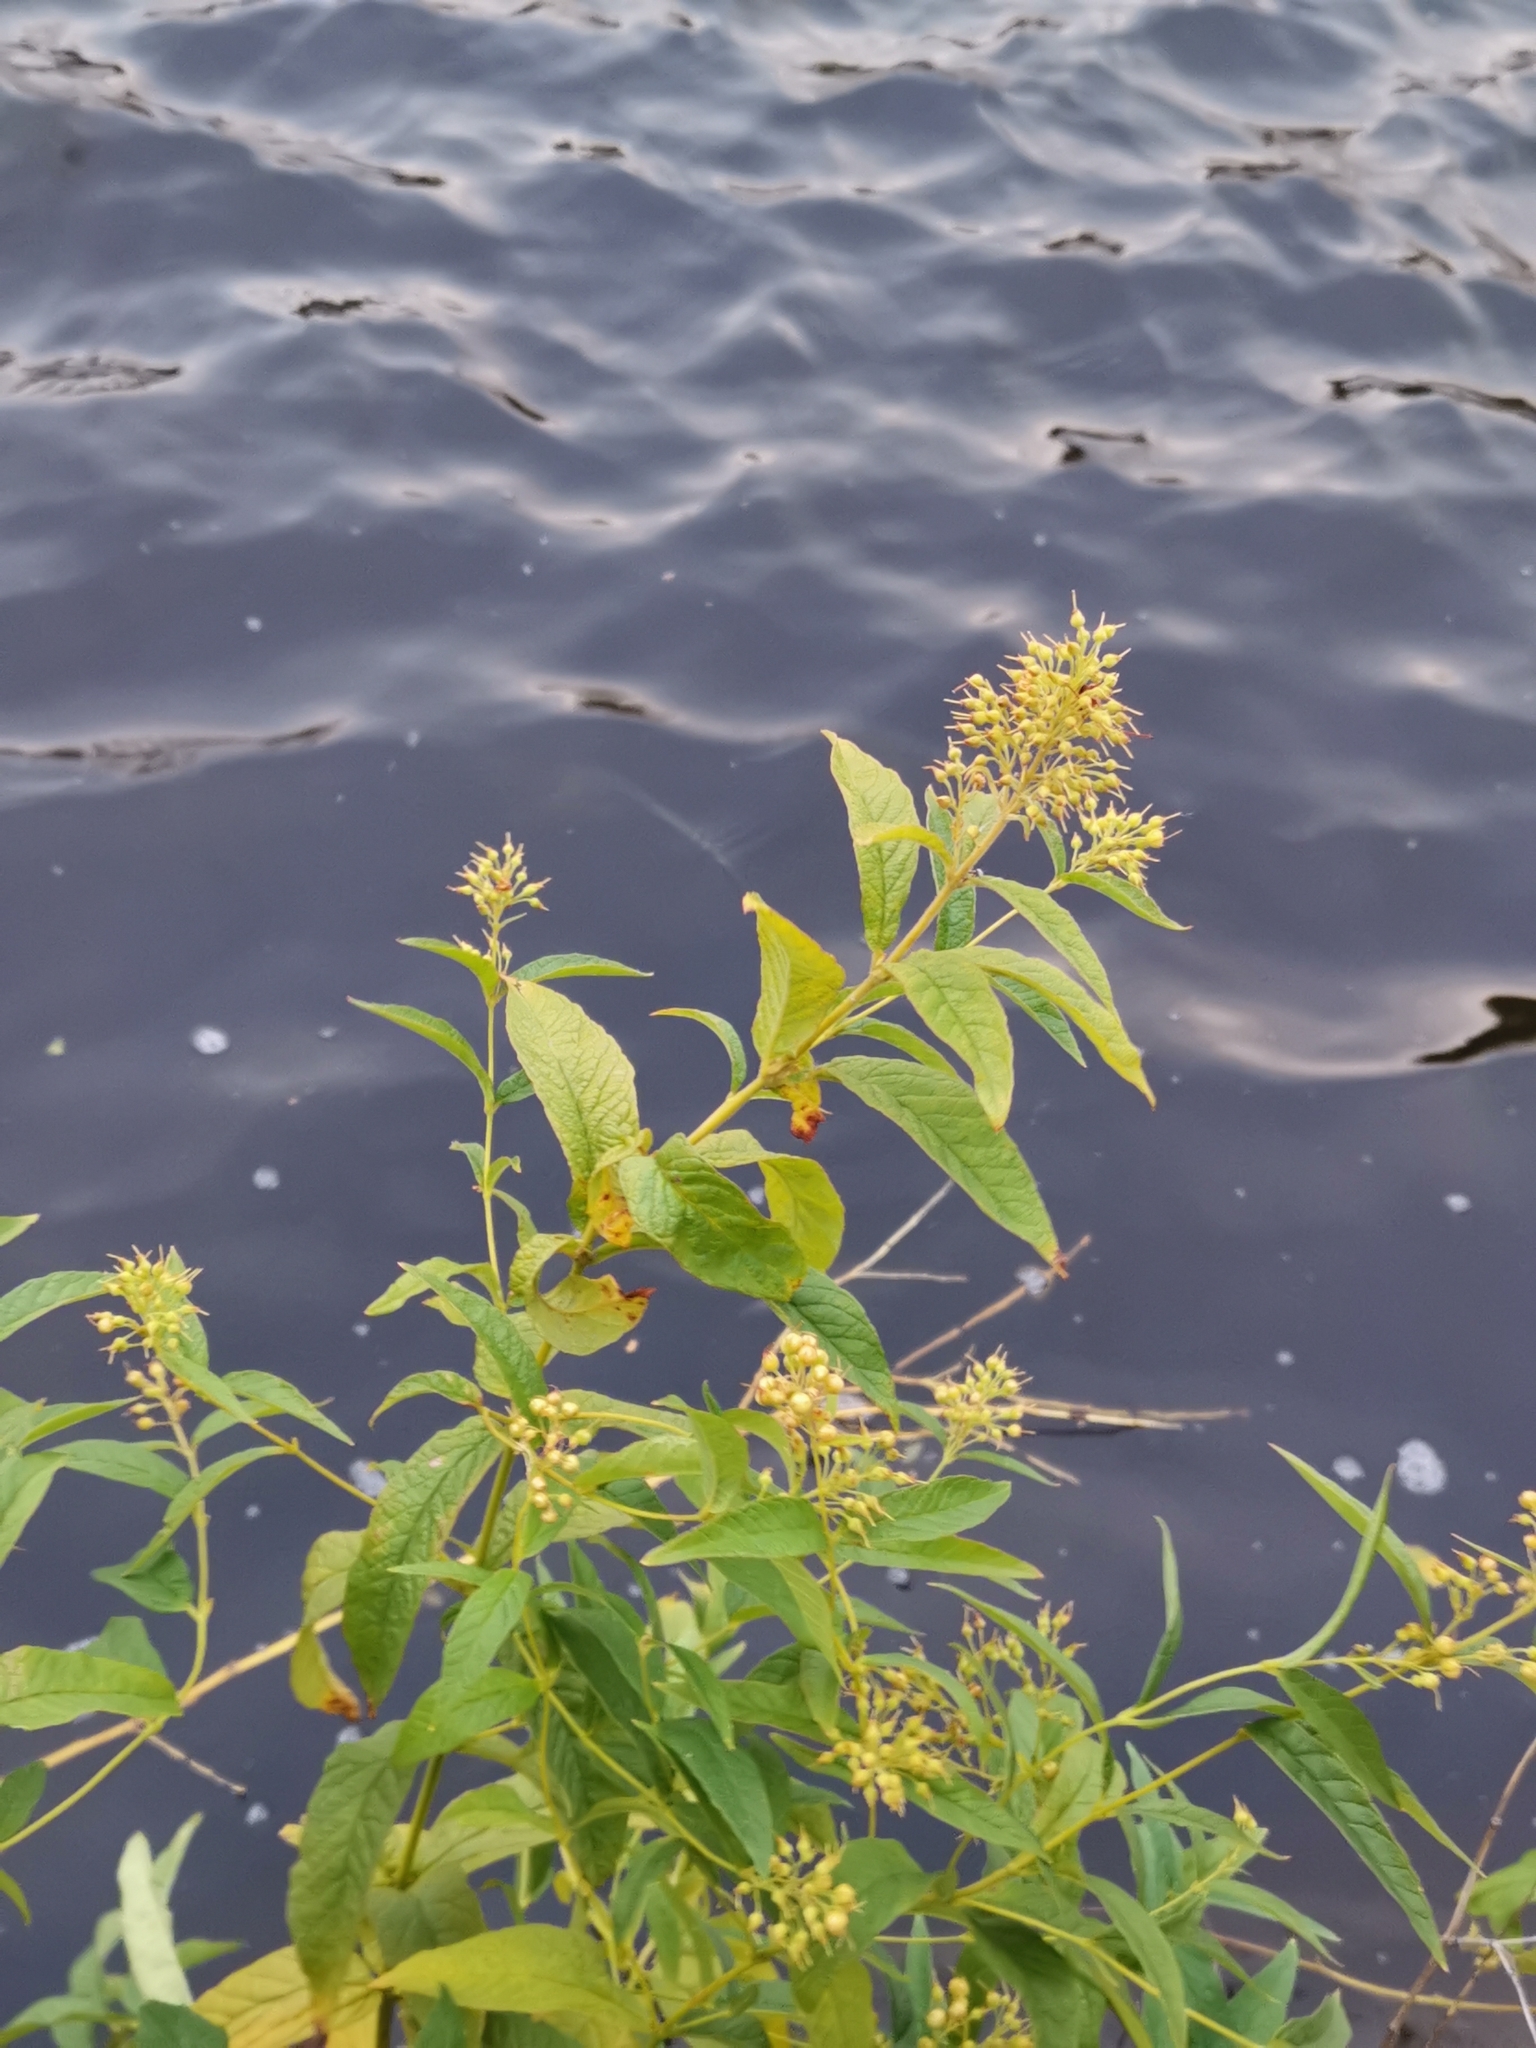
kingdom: Plantae
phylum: Tracheophyta
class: Magnoliopsida
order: Ericales
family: Primulaceae
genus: Lysimachia
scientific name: Lysimachia vulgaris
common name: Yellow loosestrife
